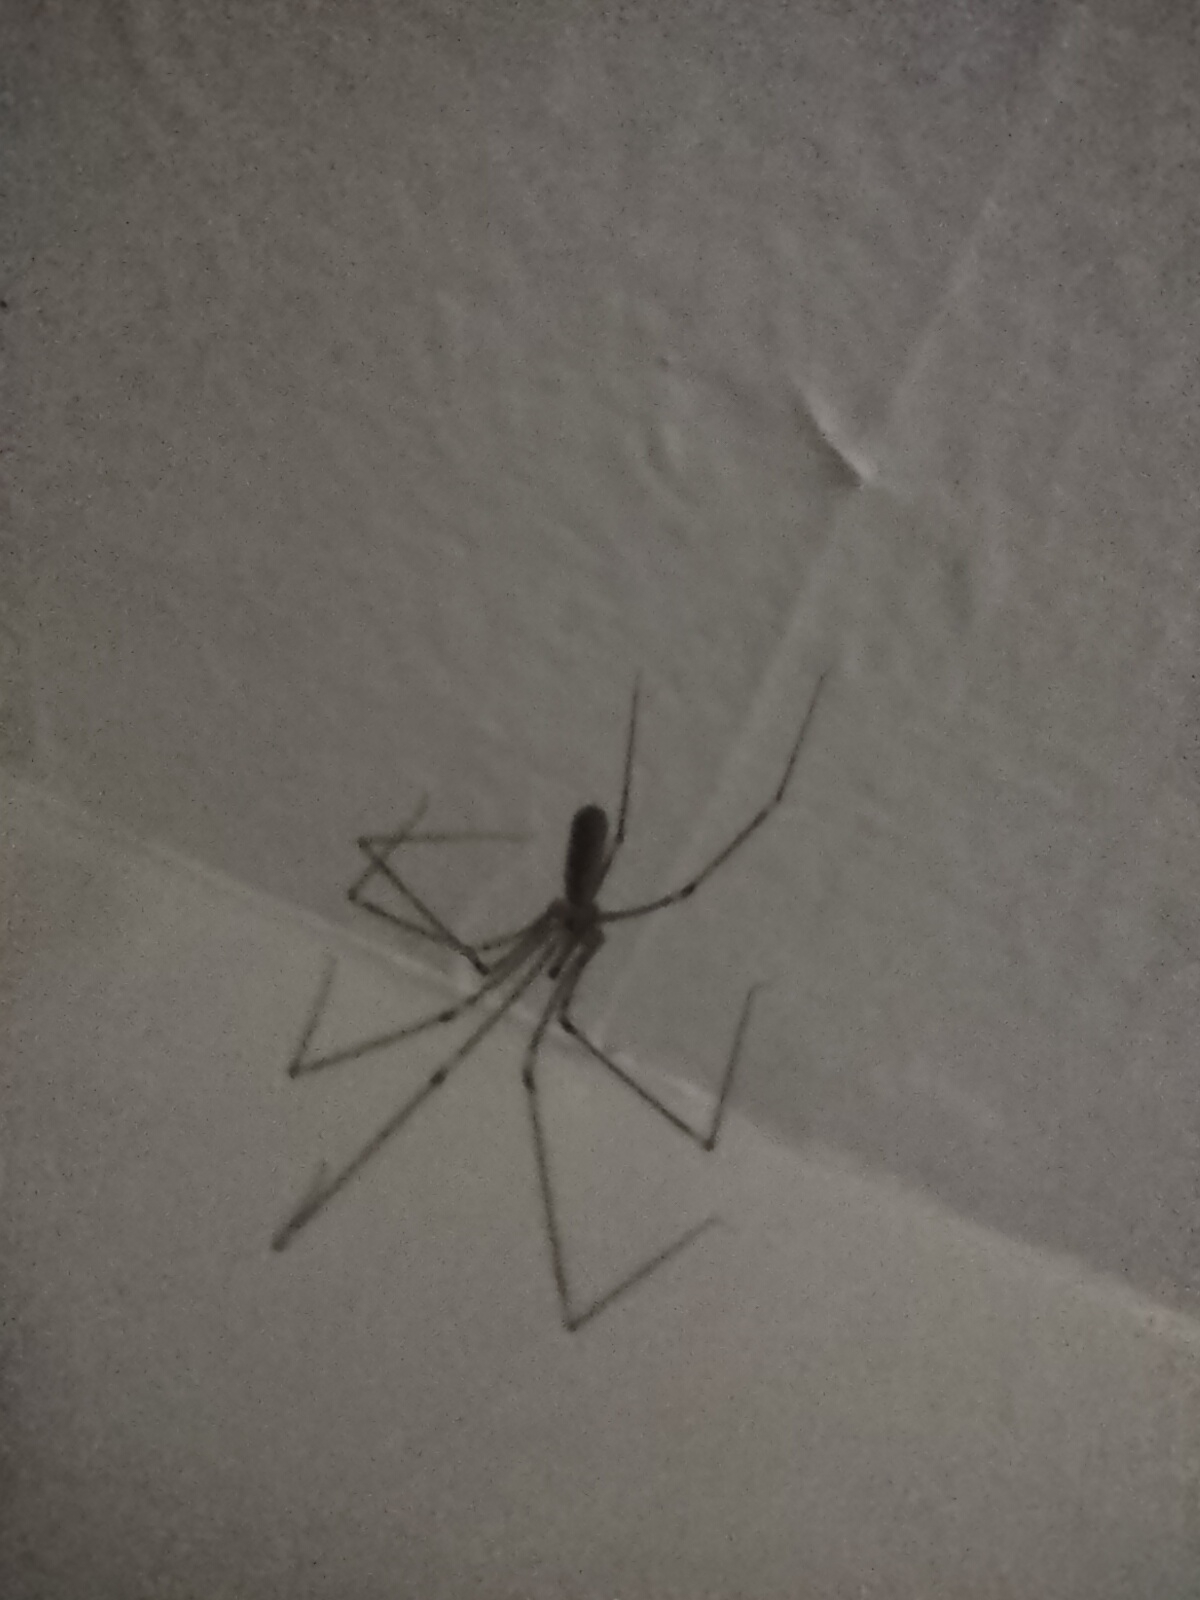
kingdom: Animalia
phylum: Arthropoda
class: Arachnida
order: Araneae
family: Pholcidae
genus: Pholcus
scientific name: Pholcus phalangioides
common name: Longbodied cellar spider
